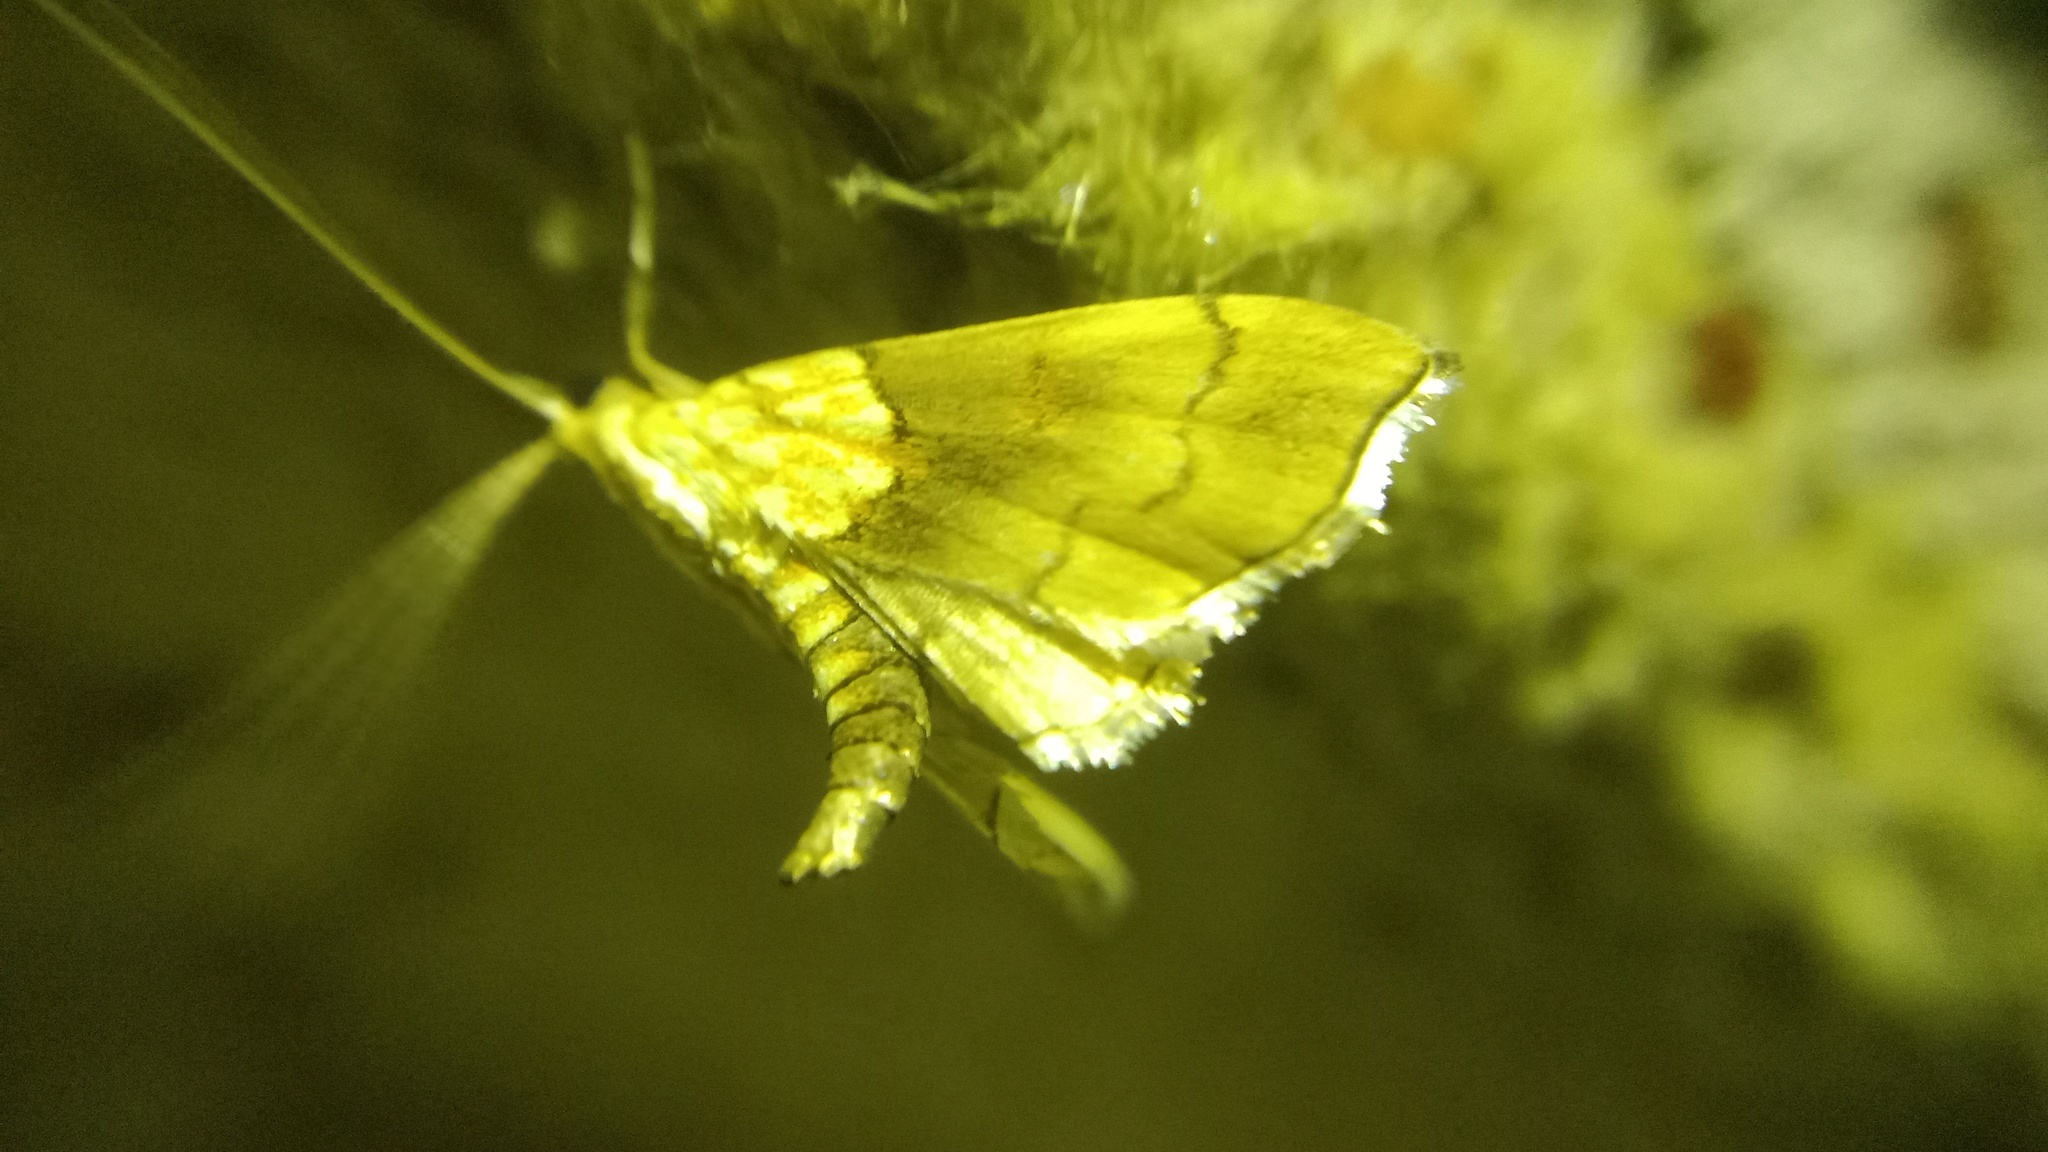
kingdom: Animalia
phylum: Arthropoda
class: Insecta
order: Lepidoptera
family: Crambidae
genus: Agrotera
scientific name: Agrotera nemoralis
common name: Beautiful pearl
